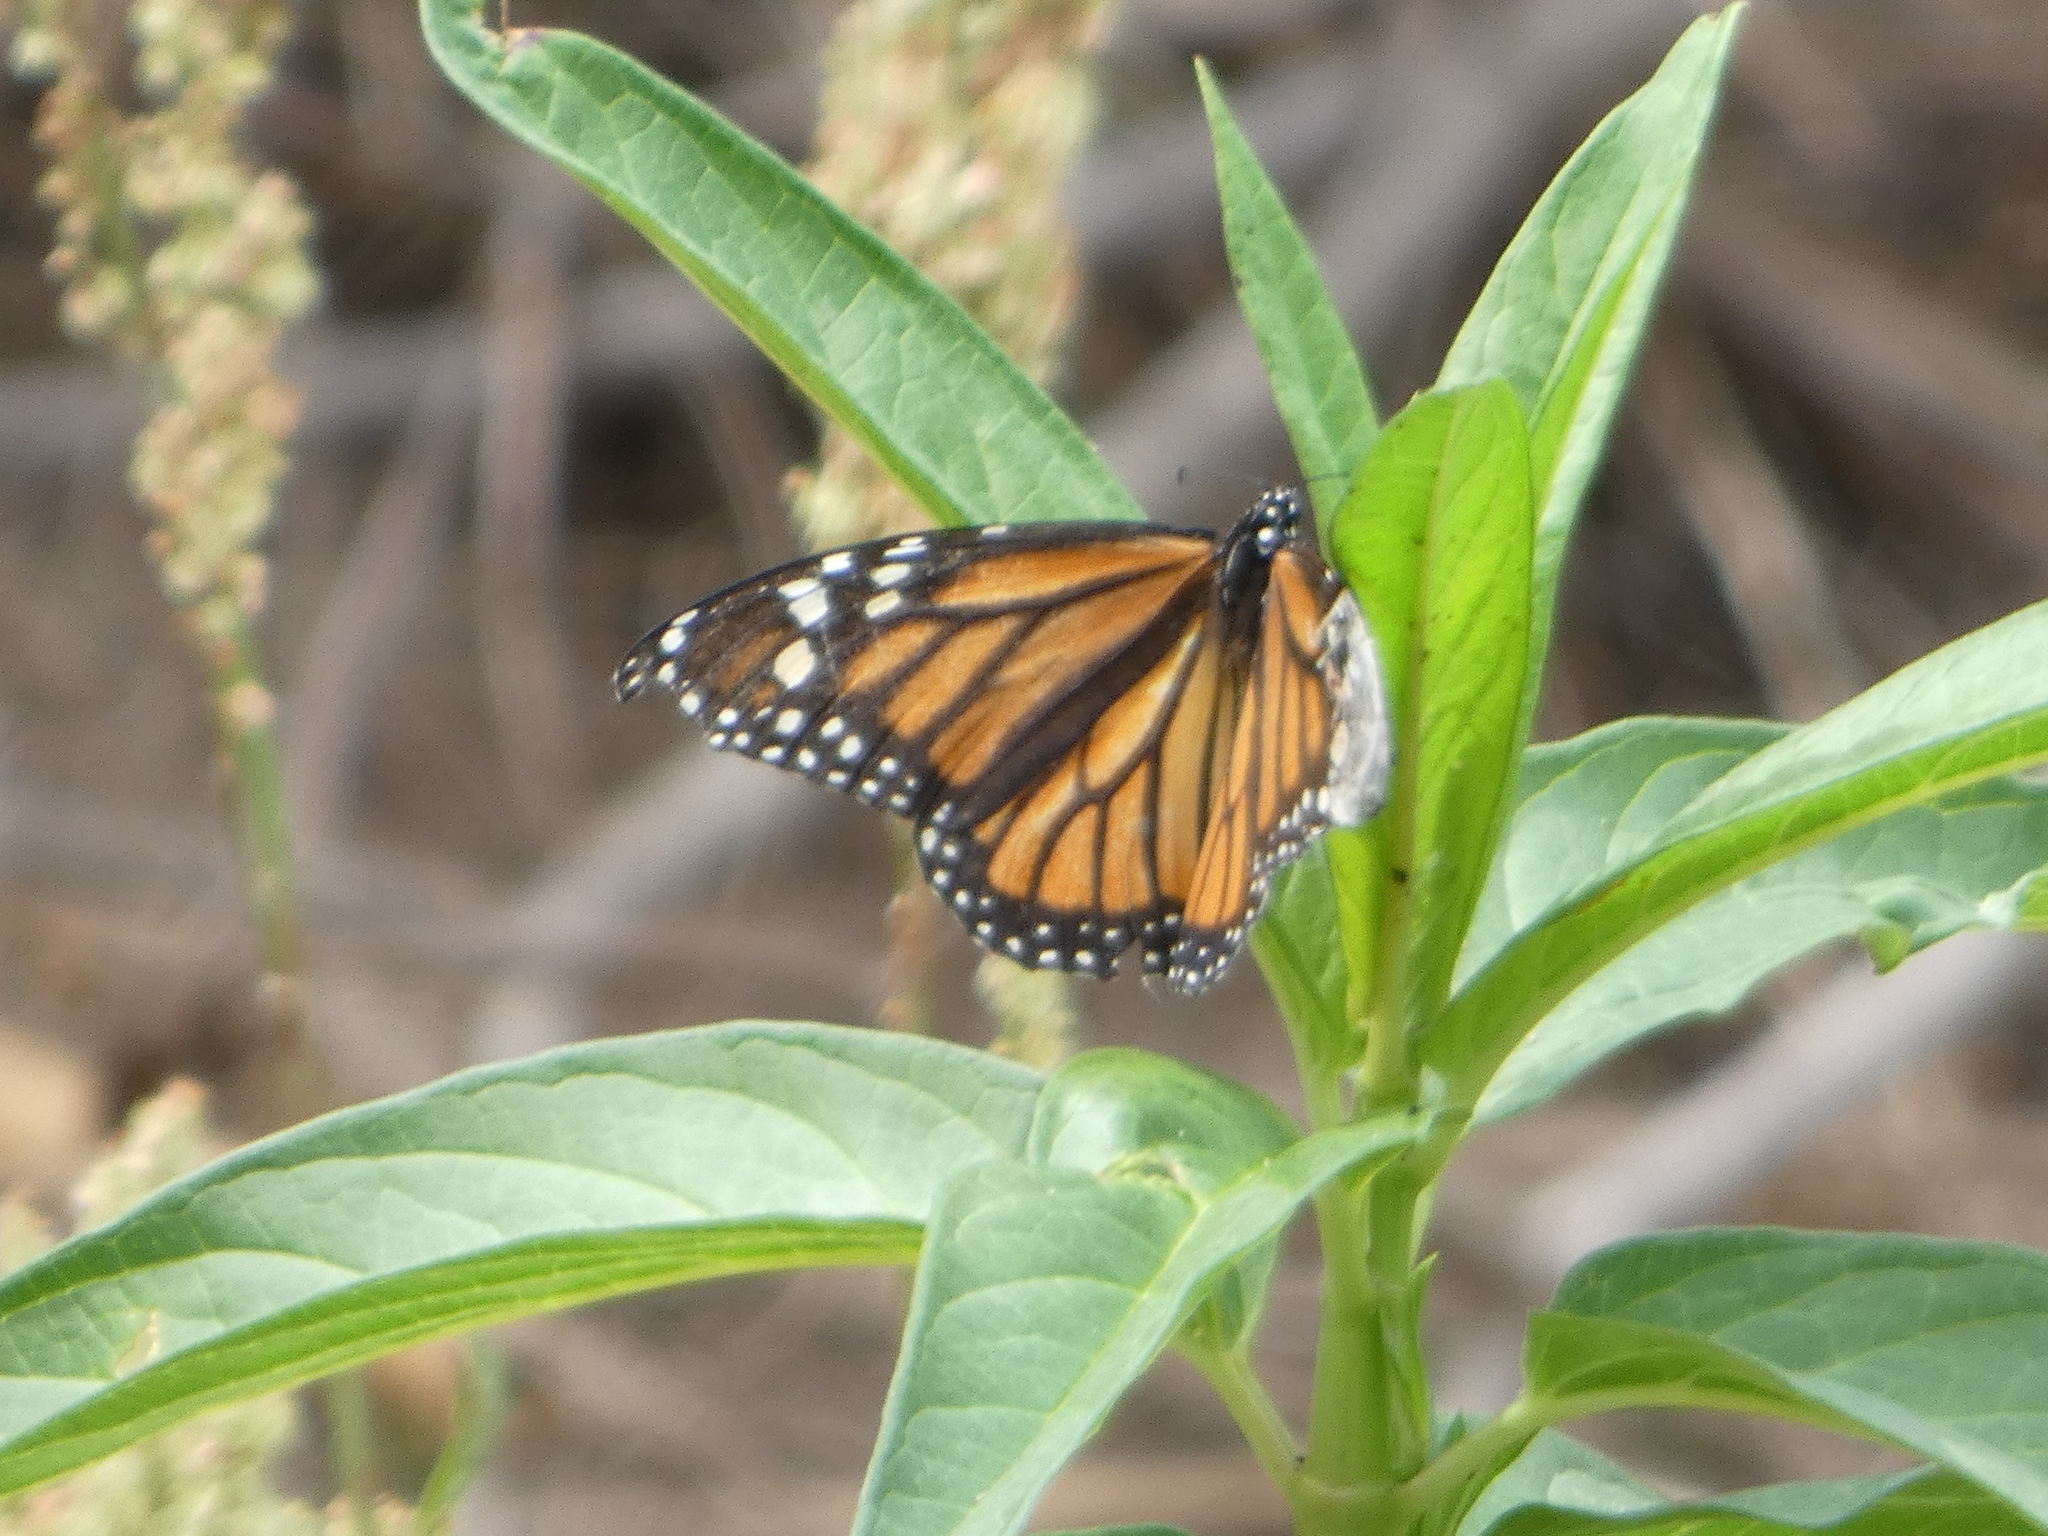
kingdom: Animalia
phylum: Arthropoda
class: Insecta
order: Lepidoptera
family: Nymphalidae
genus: Danaus
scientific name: Danaus plexippus
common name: Monarch
